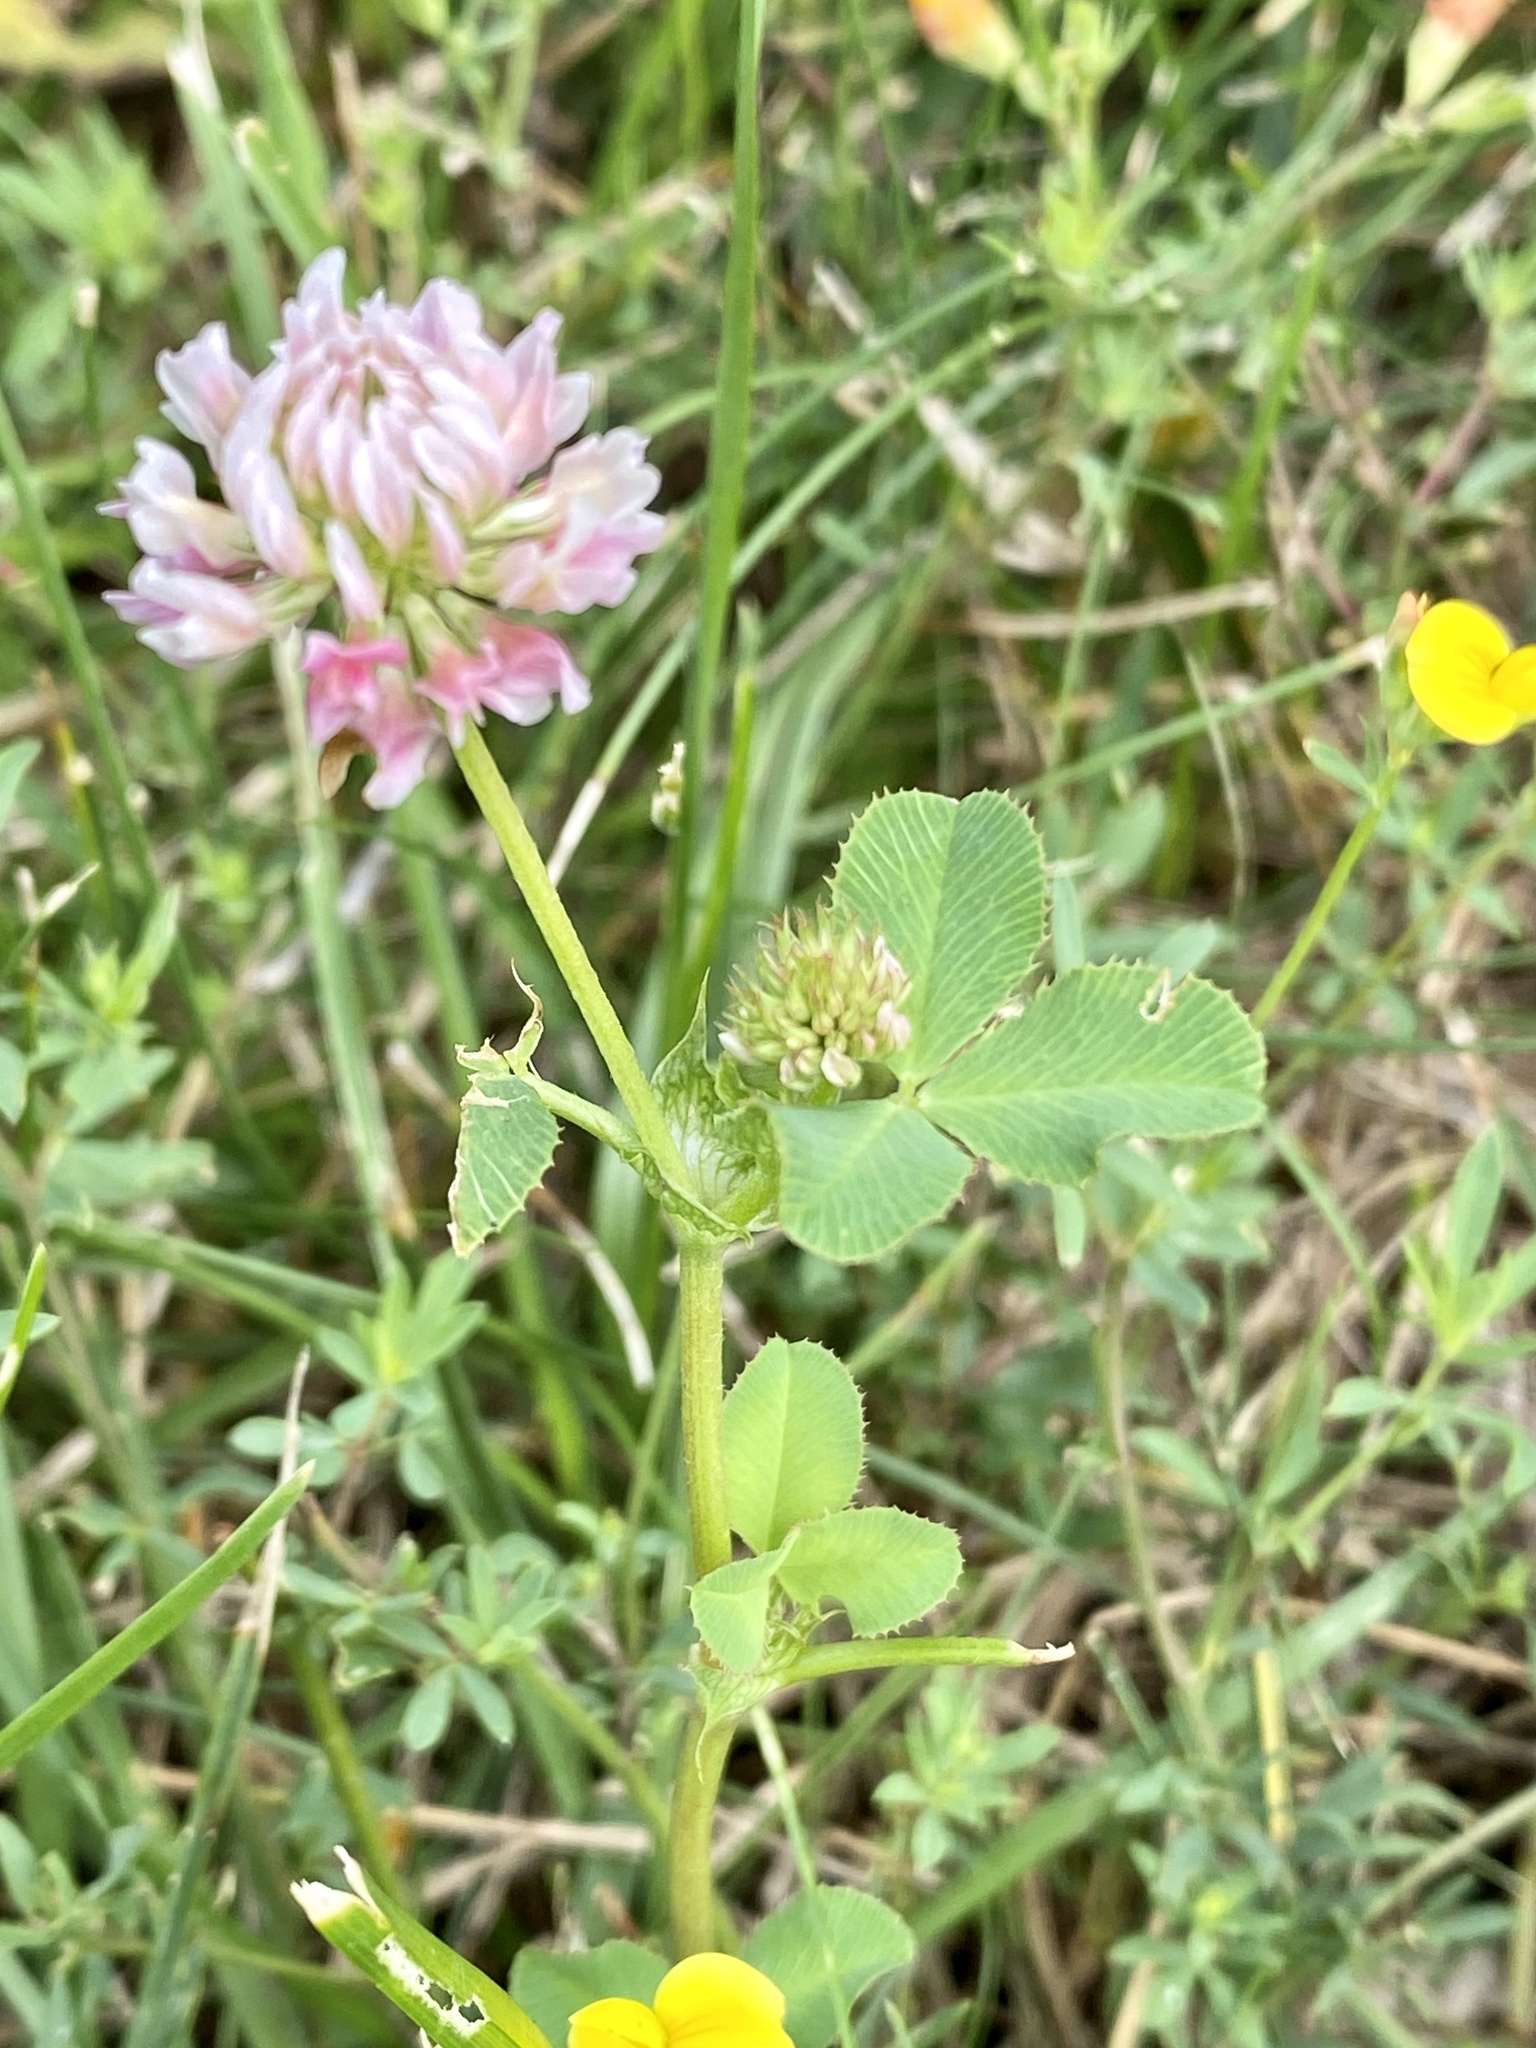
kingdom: Plantae
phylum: Tracheophyta
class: Magnoliopsida
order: Fabales
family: Fabaceae
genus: Trifolium
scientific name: Trifolium hybridum
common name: Alsike clover
